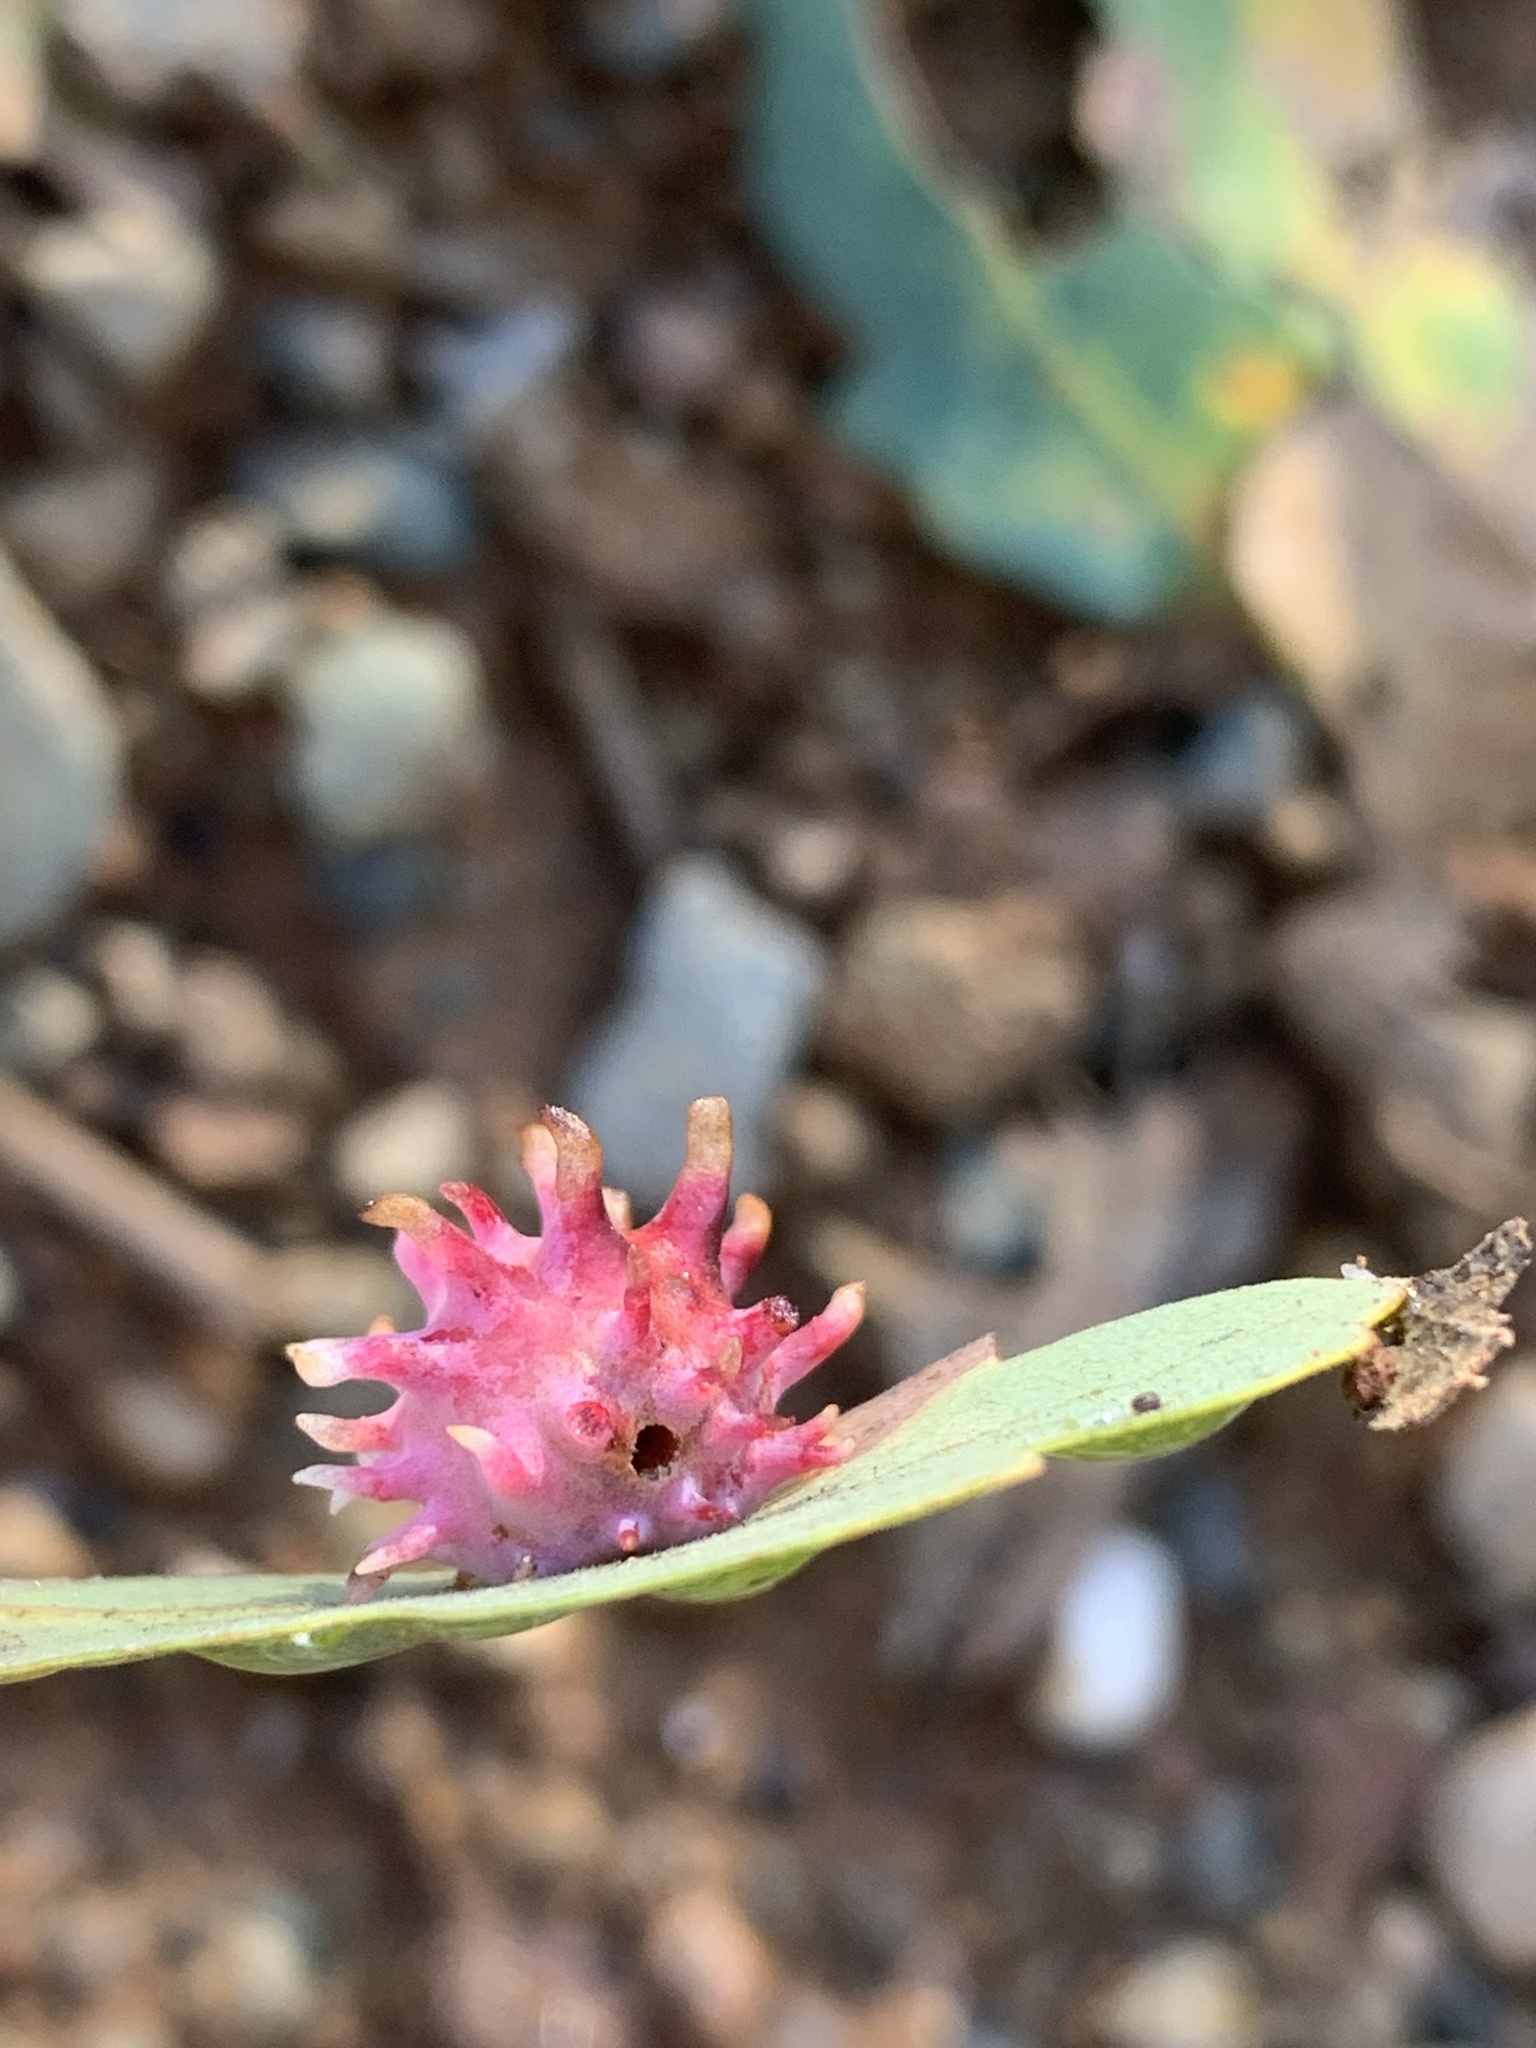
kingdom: Animalia
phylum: Arthropoda
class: Insecta
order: Hymenoptera
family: Cynipidae
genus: Cynips
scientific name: Cynips
